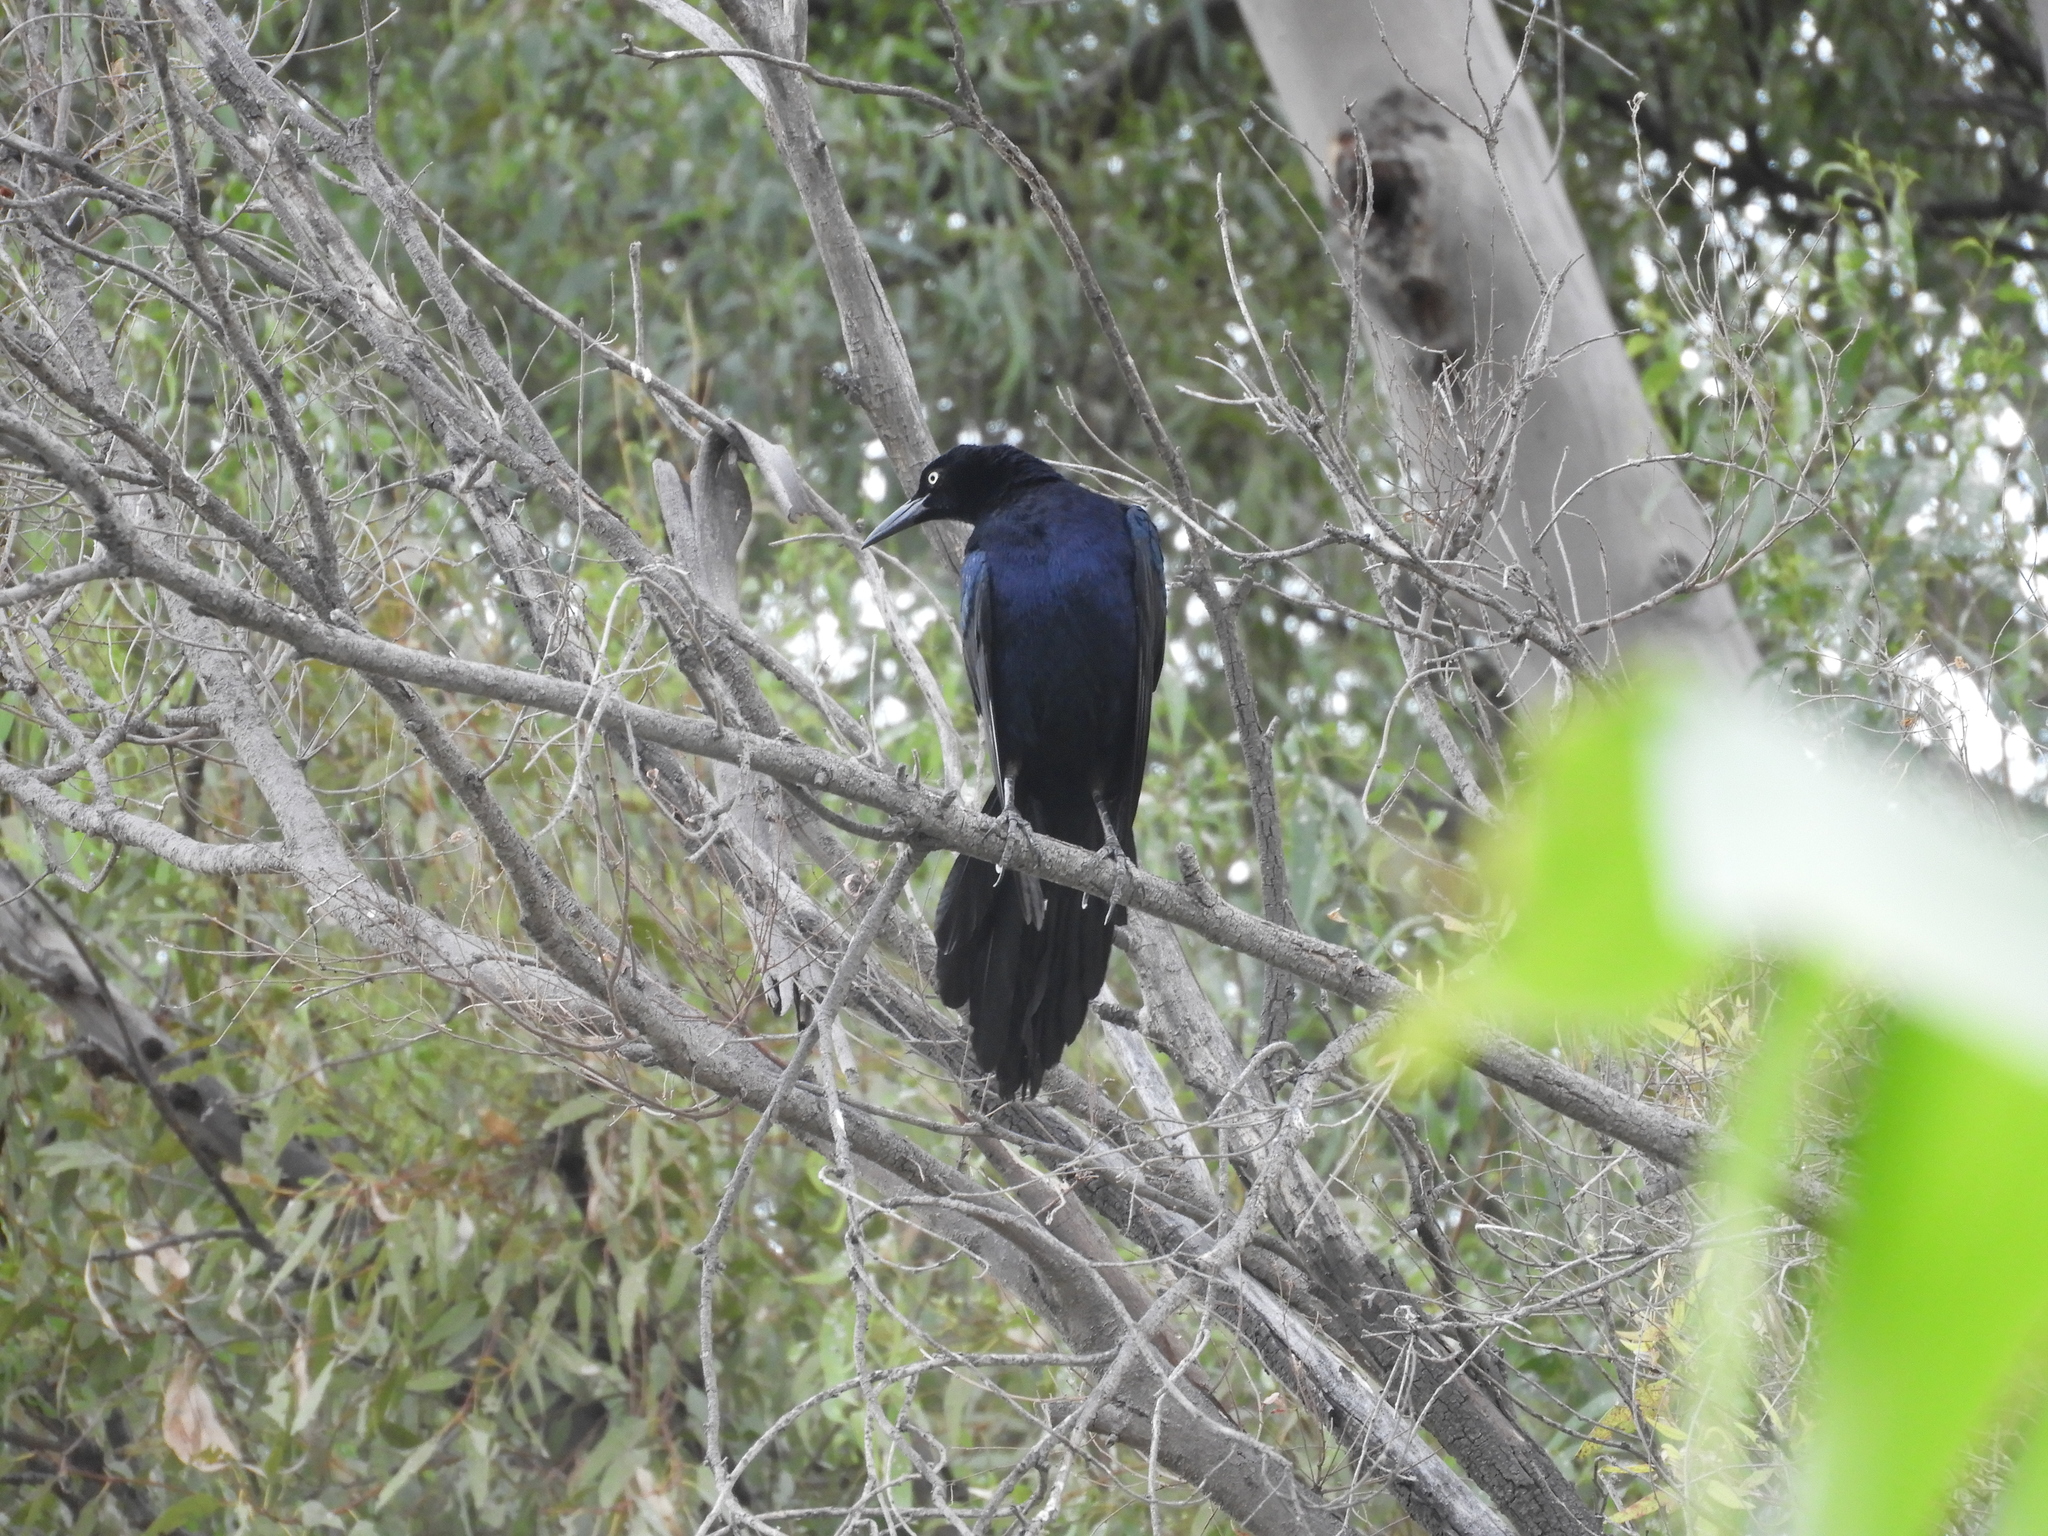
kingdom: Animalia
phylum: Chordata
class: Aves
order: Passeriformes
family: Icteridae
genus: Quiscalus
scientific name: Quiscalus mexicanus
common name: Great-tailed grackle
